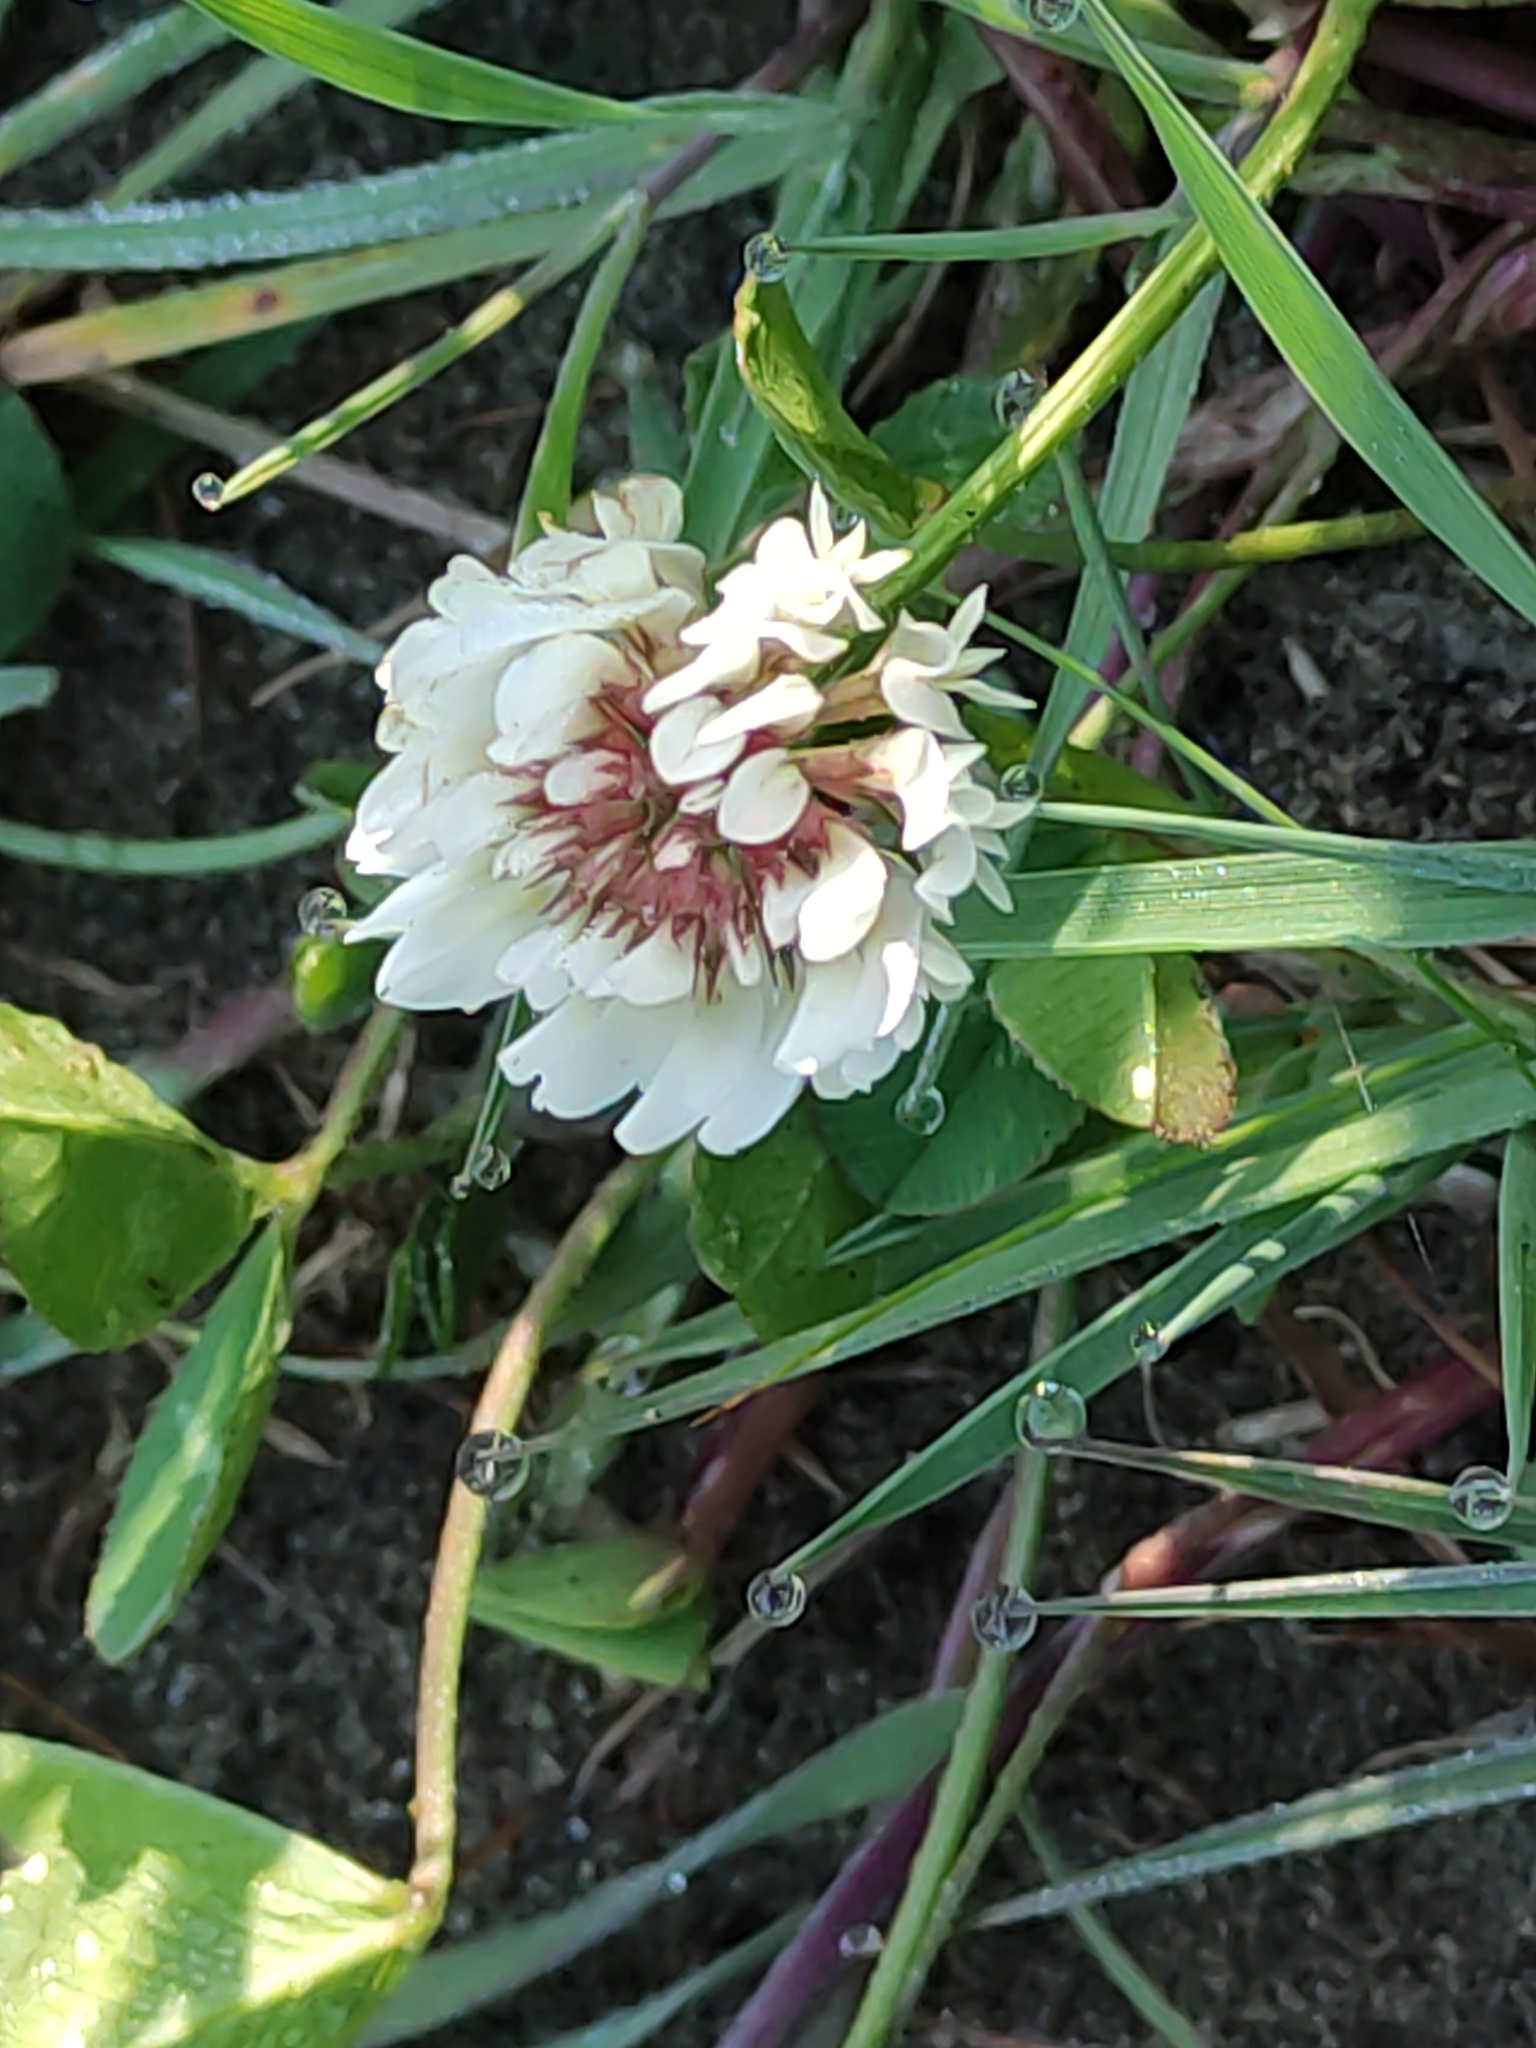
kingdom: Plantae
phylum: Tracheophyta
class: Magnoliopsida
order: Fabales
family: Fabaceae
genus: Trifolium
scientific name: Trifolium repens
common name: White clover
